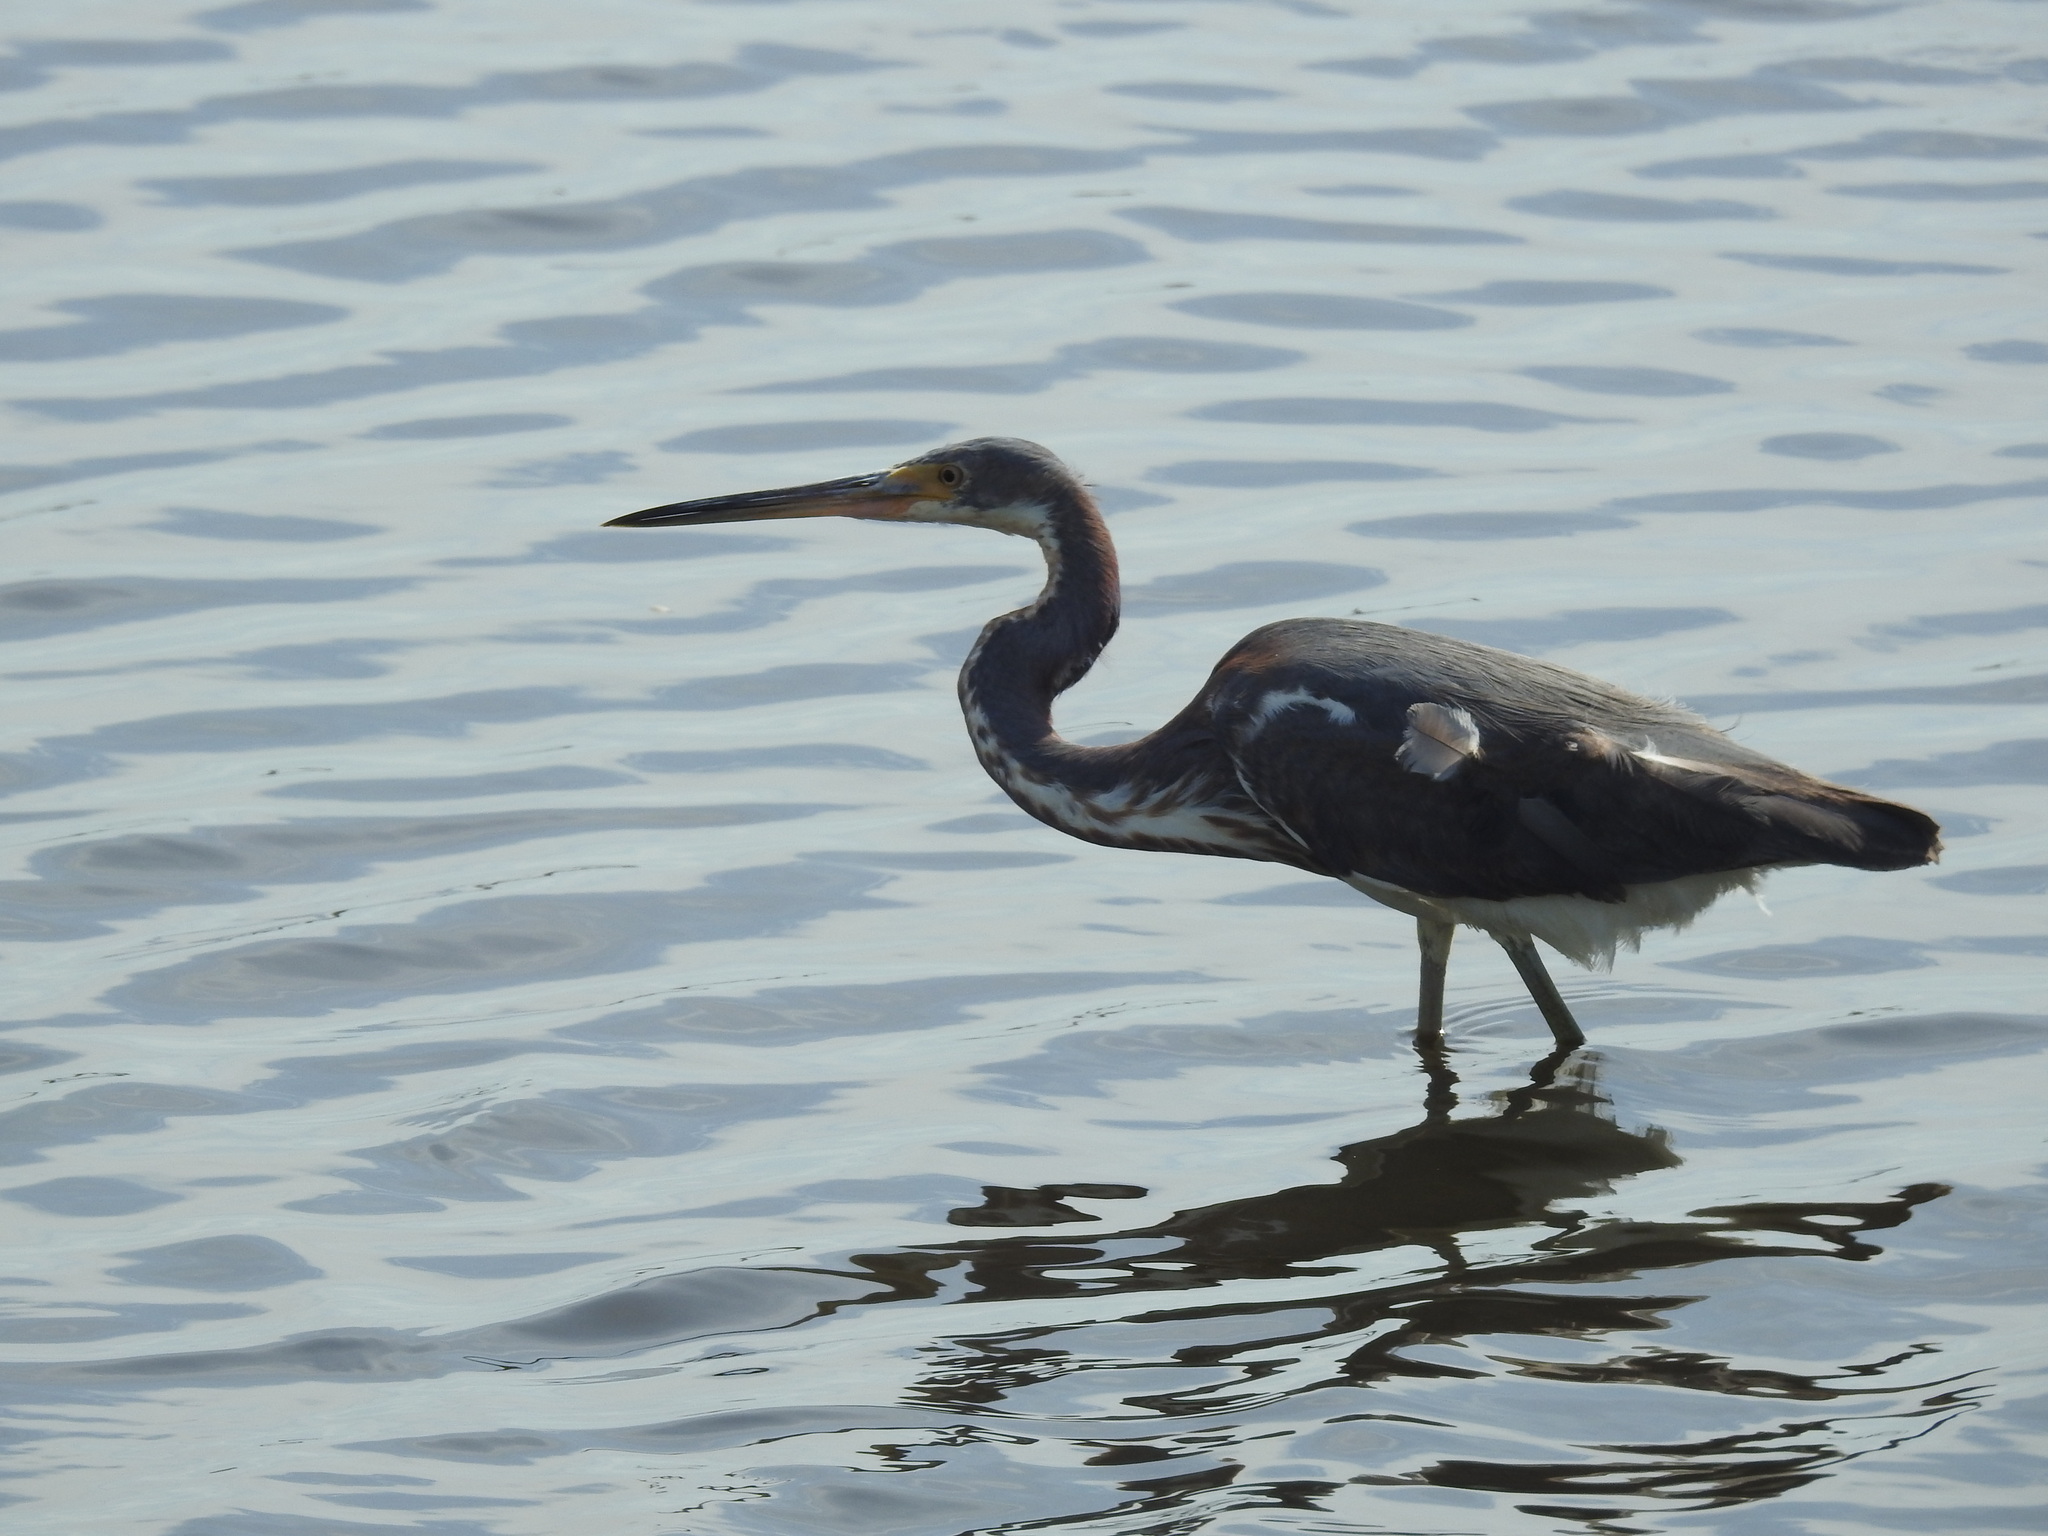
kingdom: Animalia
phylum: Chordata
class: Aves
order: Pelecaniformes
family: Ardeidae
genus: Egretta
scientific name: Egretta tricolor
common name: Tricolored heron
